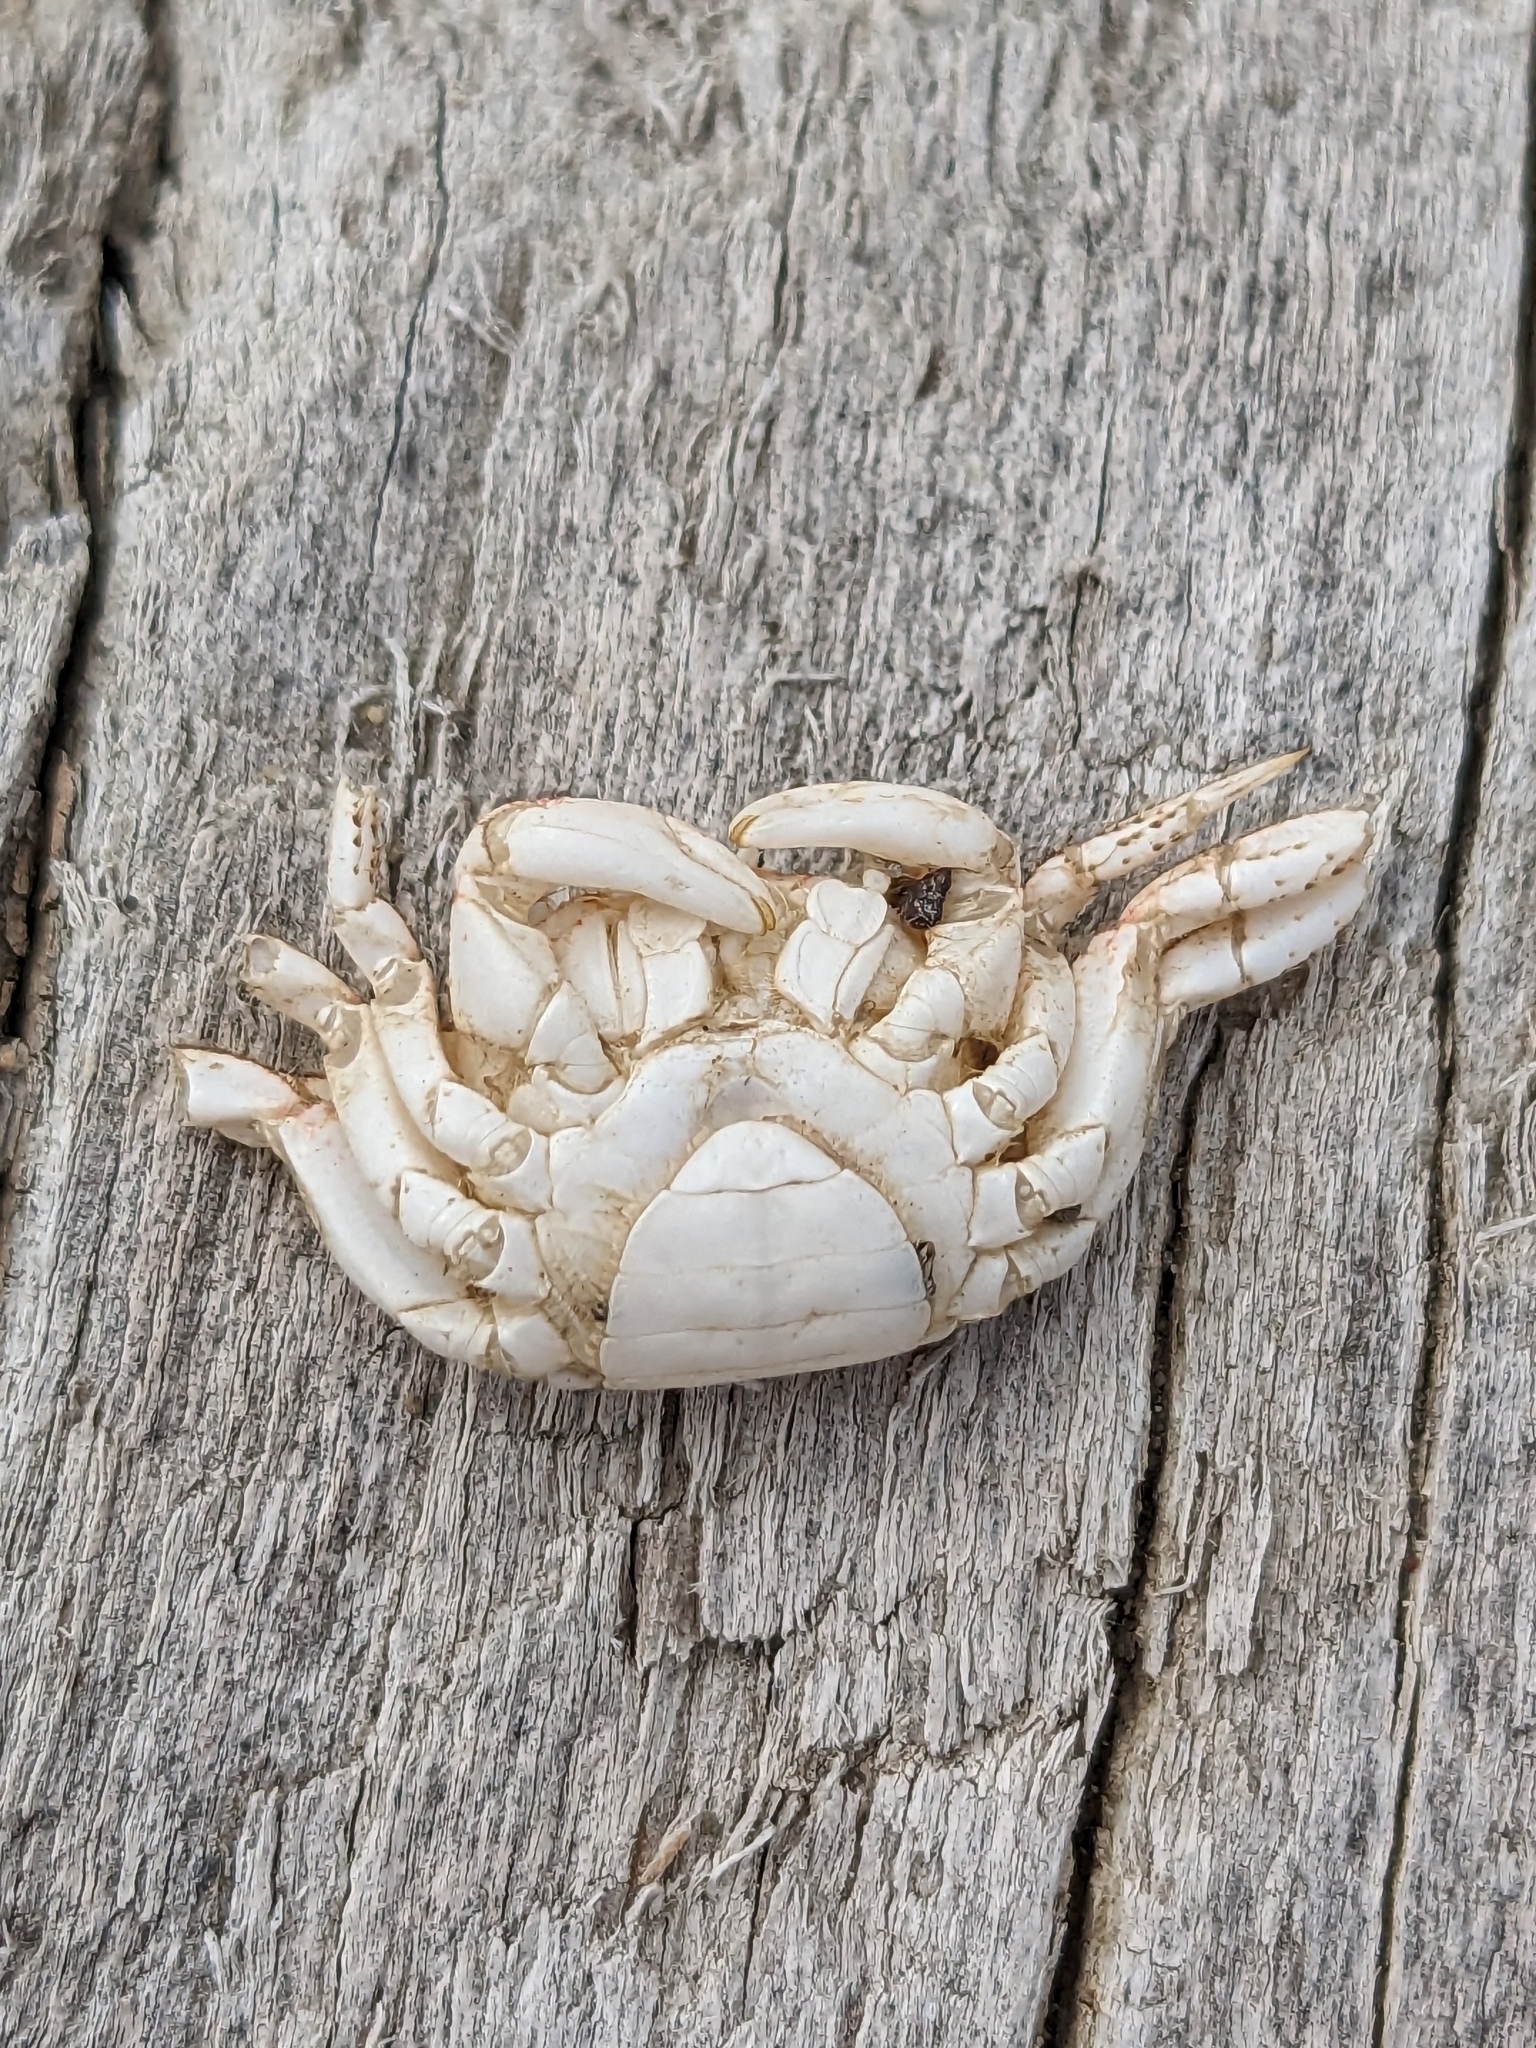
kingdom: Animalia
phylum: Arthropoda
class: Malacostraca
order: Decapoda
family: Varunidae
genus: Hemigrapsus
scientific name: Hemigrapsus oregonensis
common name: Yellow shore crab
